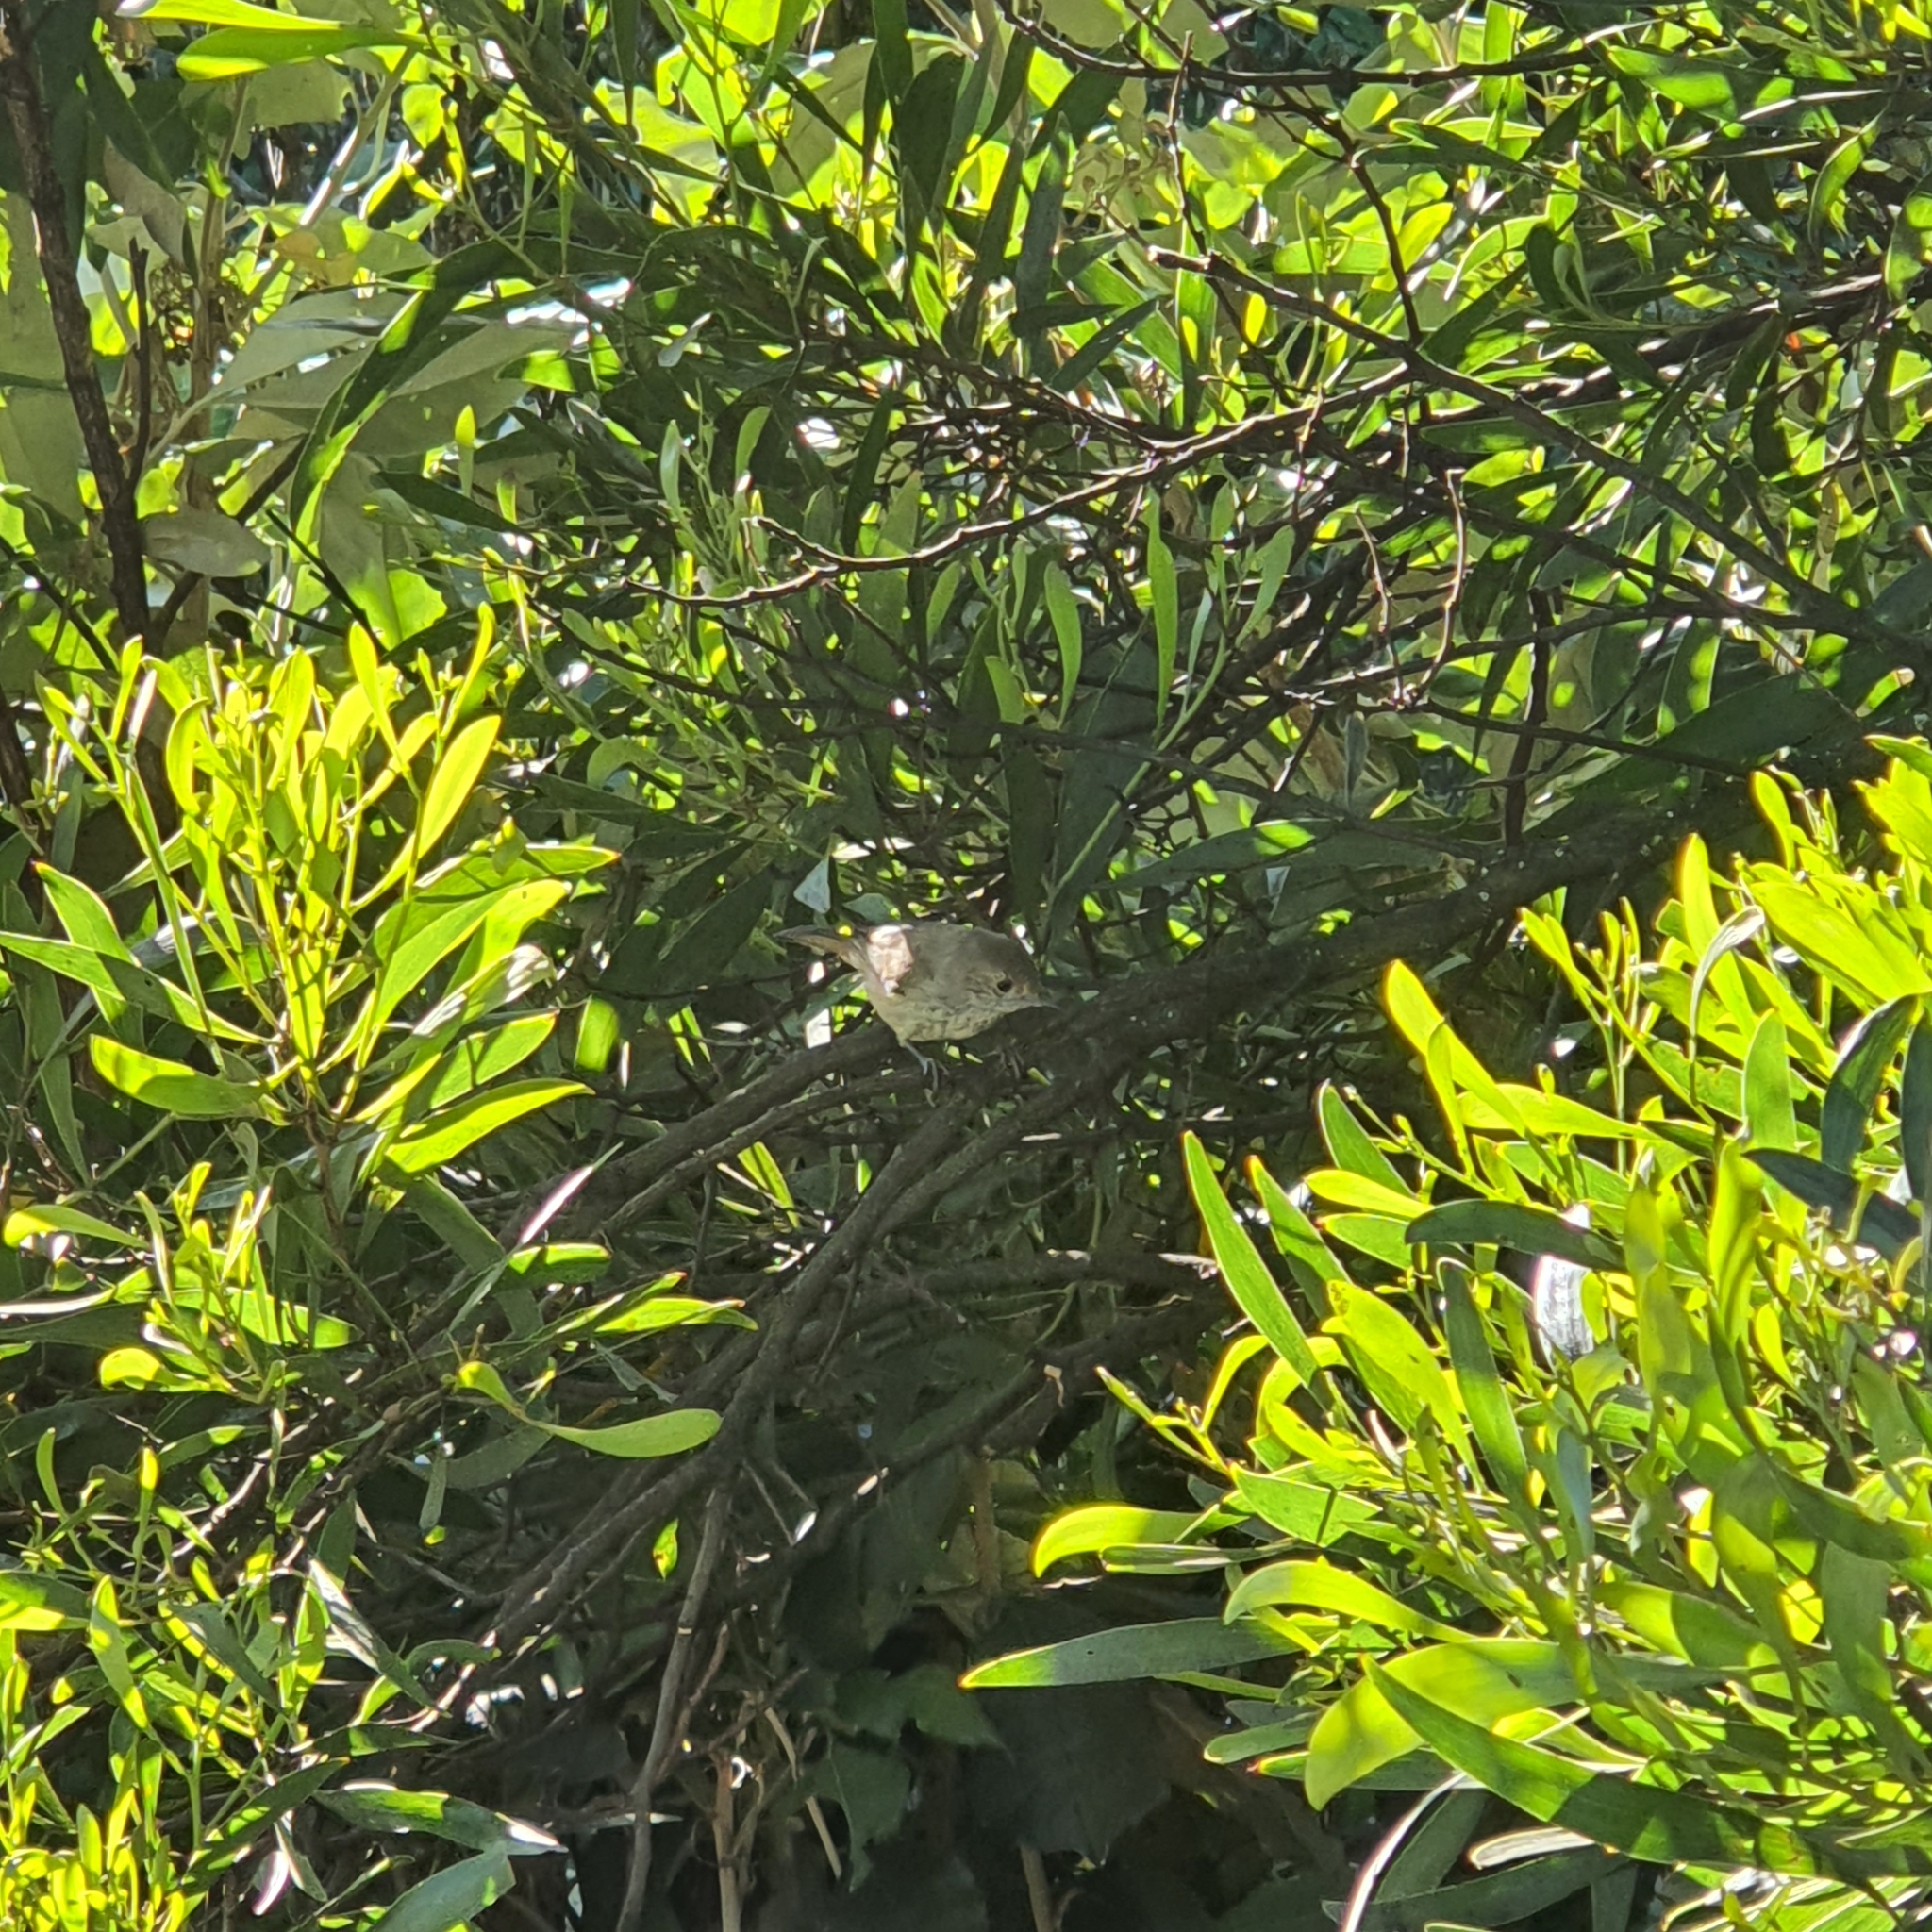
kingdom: Animalia
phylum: Chordata
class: Aves
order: Passeriformes
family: Acanthizidae
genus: Acanthiza
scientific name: Acanthiza pusilla
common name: Brown thornbill
